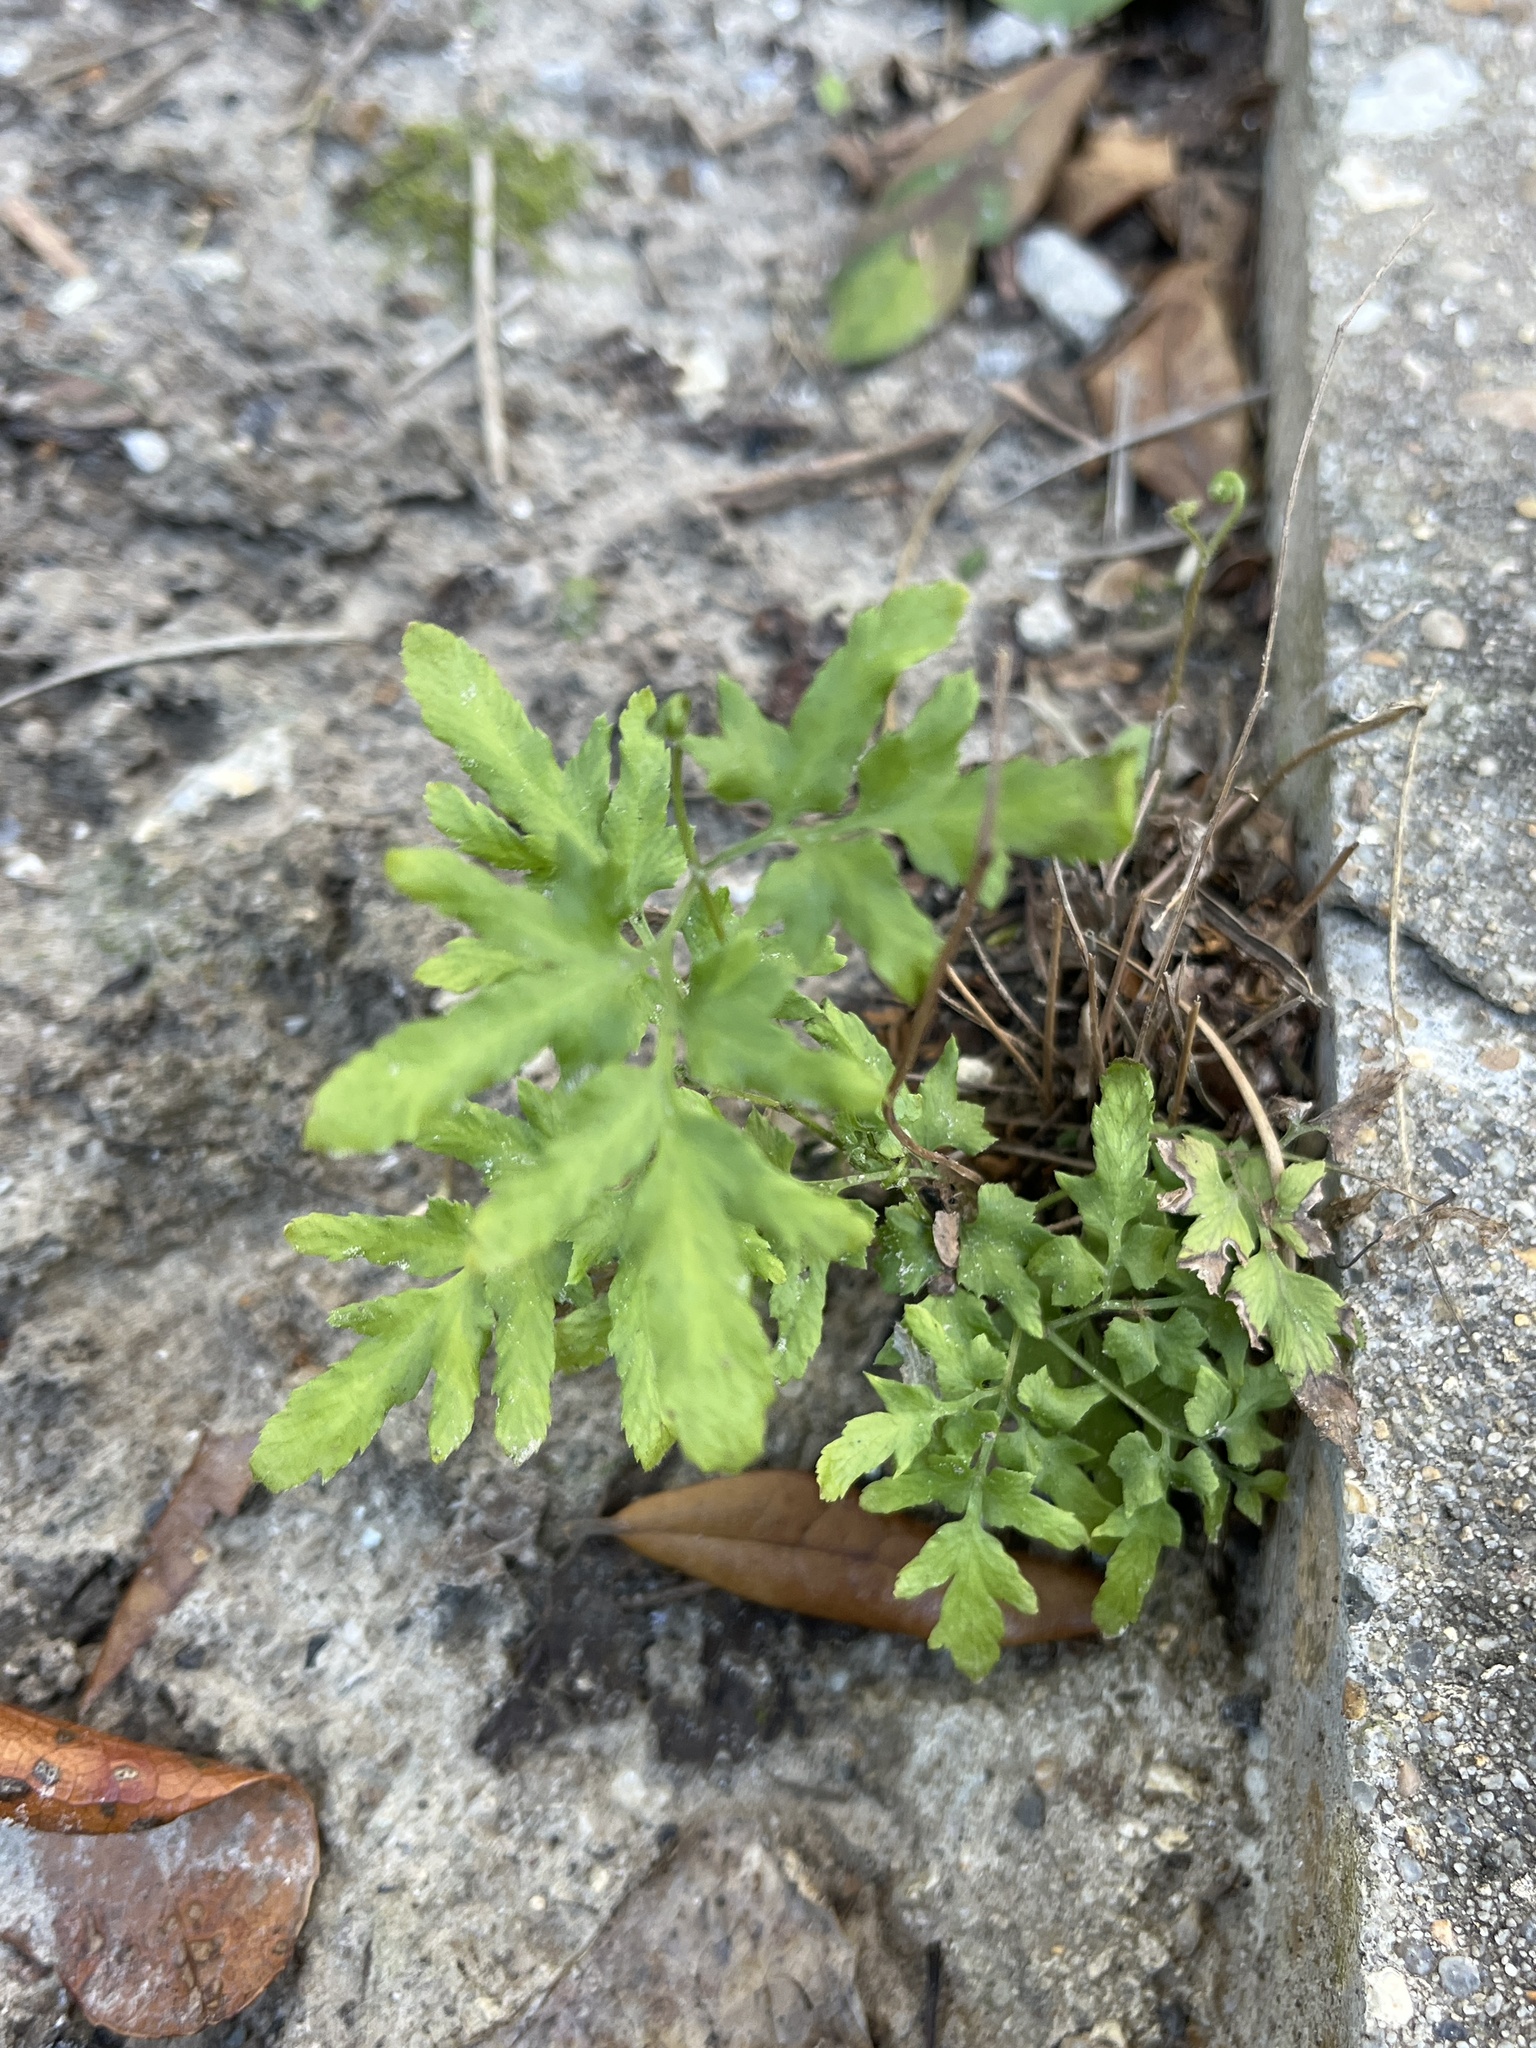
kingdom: Plantae
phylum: Tracheophyta
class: Polypodiopsida
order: Schizaeales
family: Lygodiaceae
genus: Lygodium
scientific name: Lygodium japonicum
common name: Japanese climbing fern
